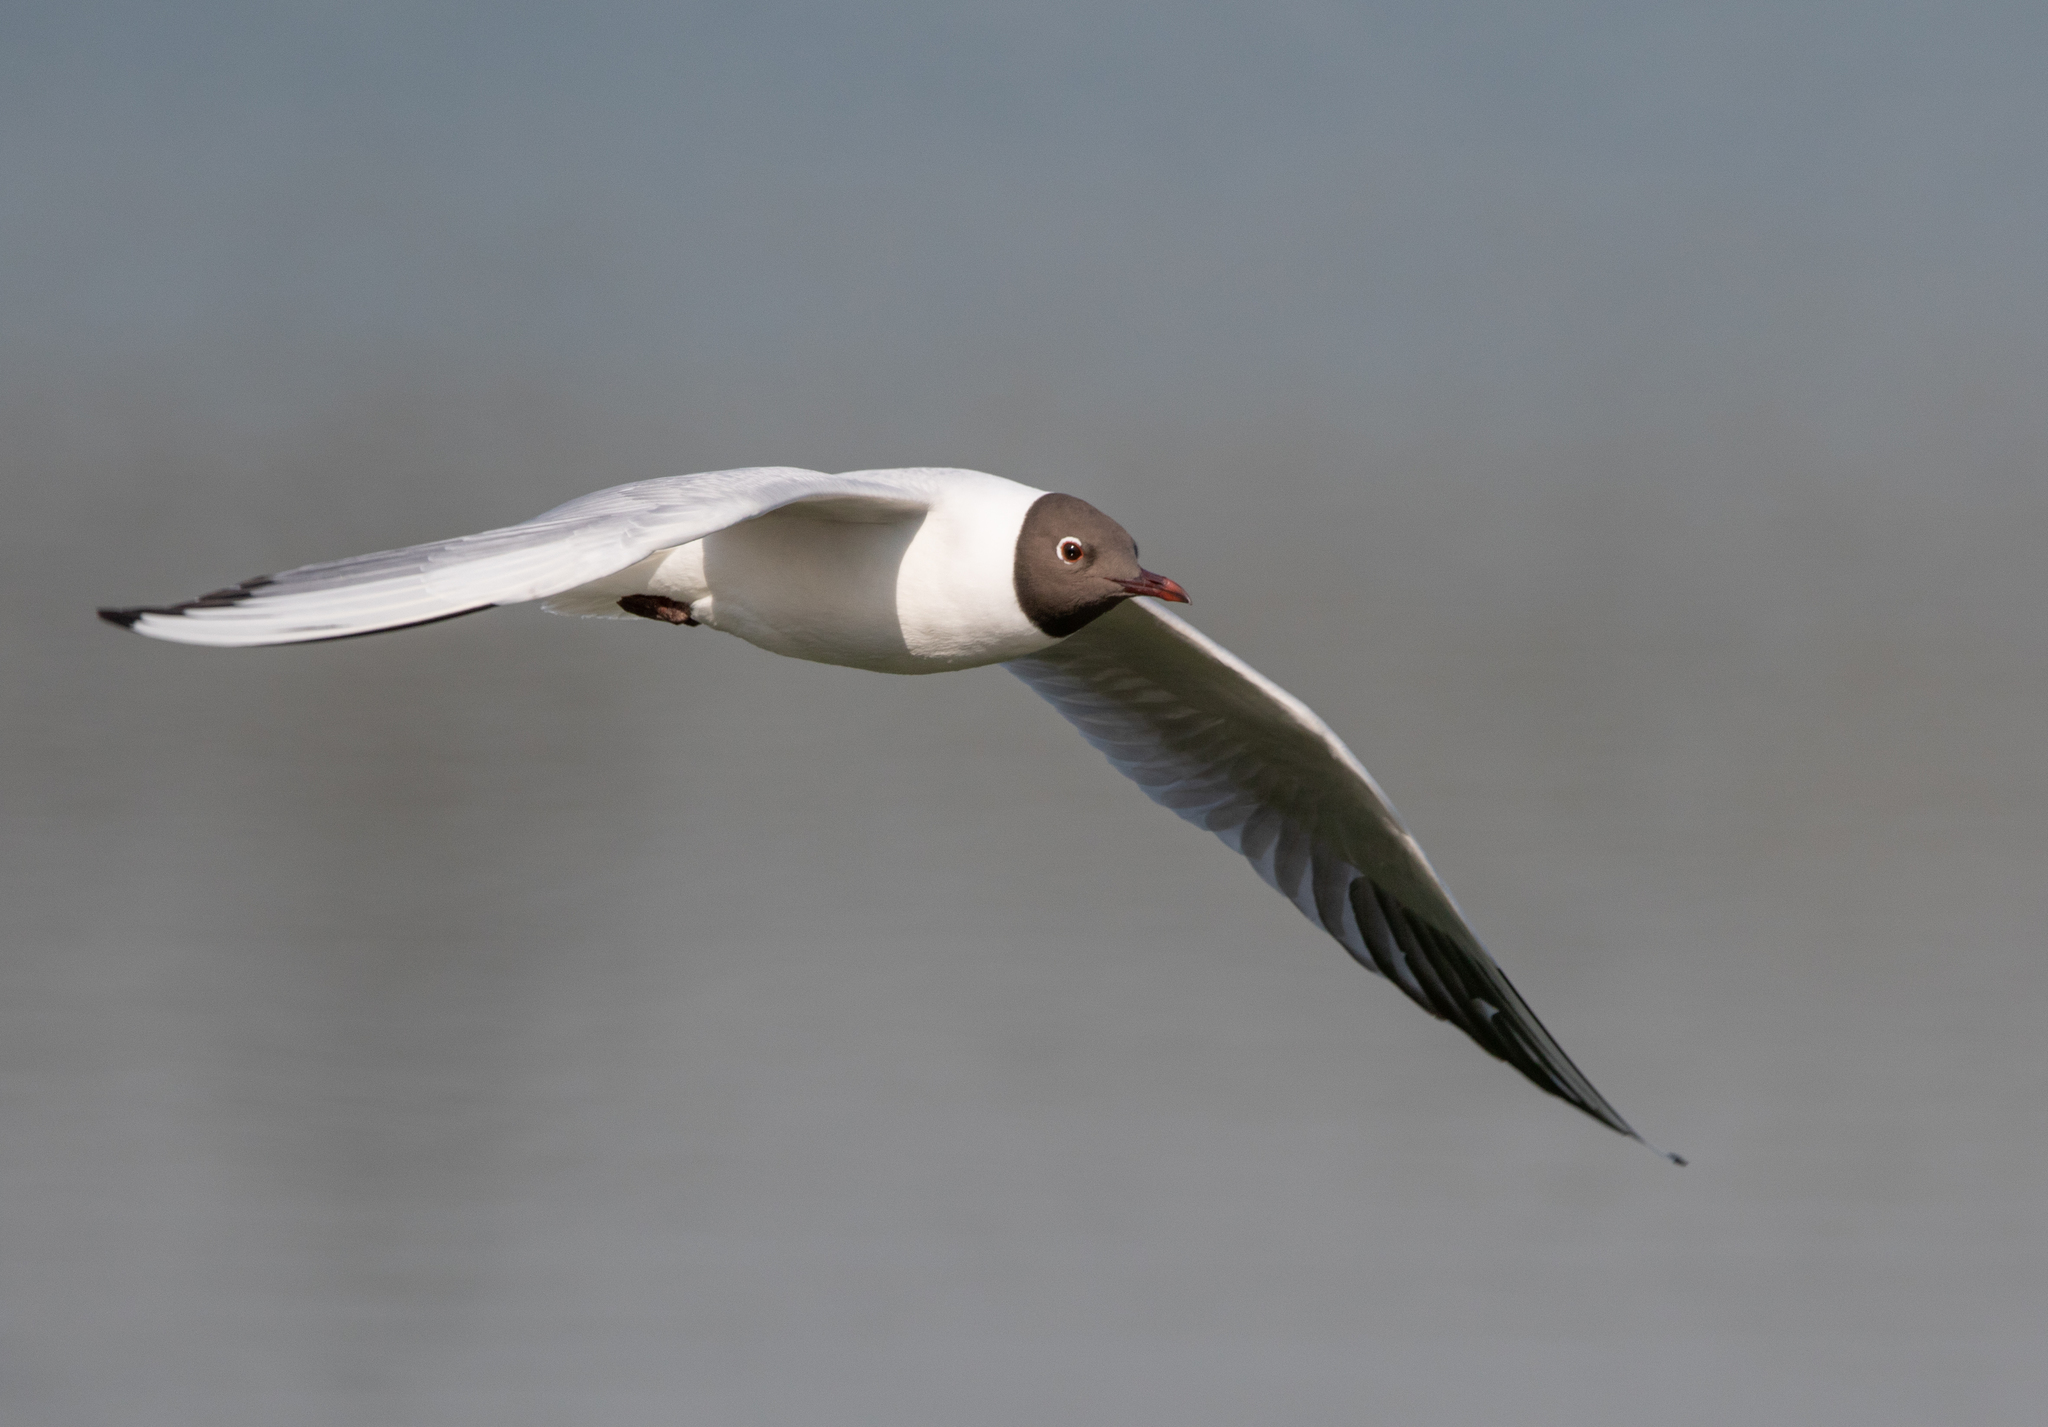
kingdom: Animalia
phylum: Chordata
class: Aves
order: Charadriiformes
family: Laridae
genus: Chroicocephalus
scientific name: Chroicocephalus ridibundus
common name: Black-headed gull
